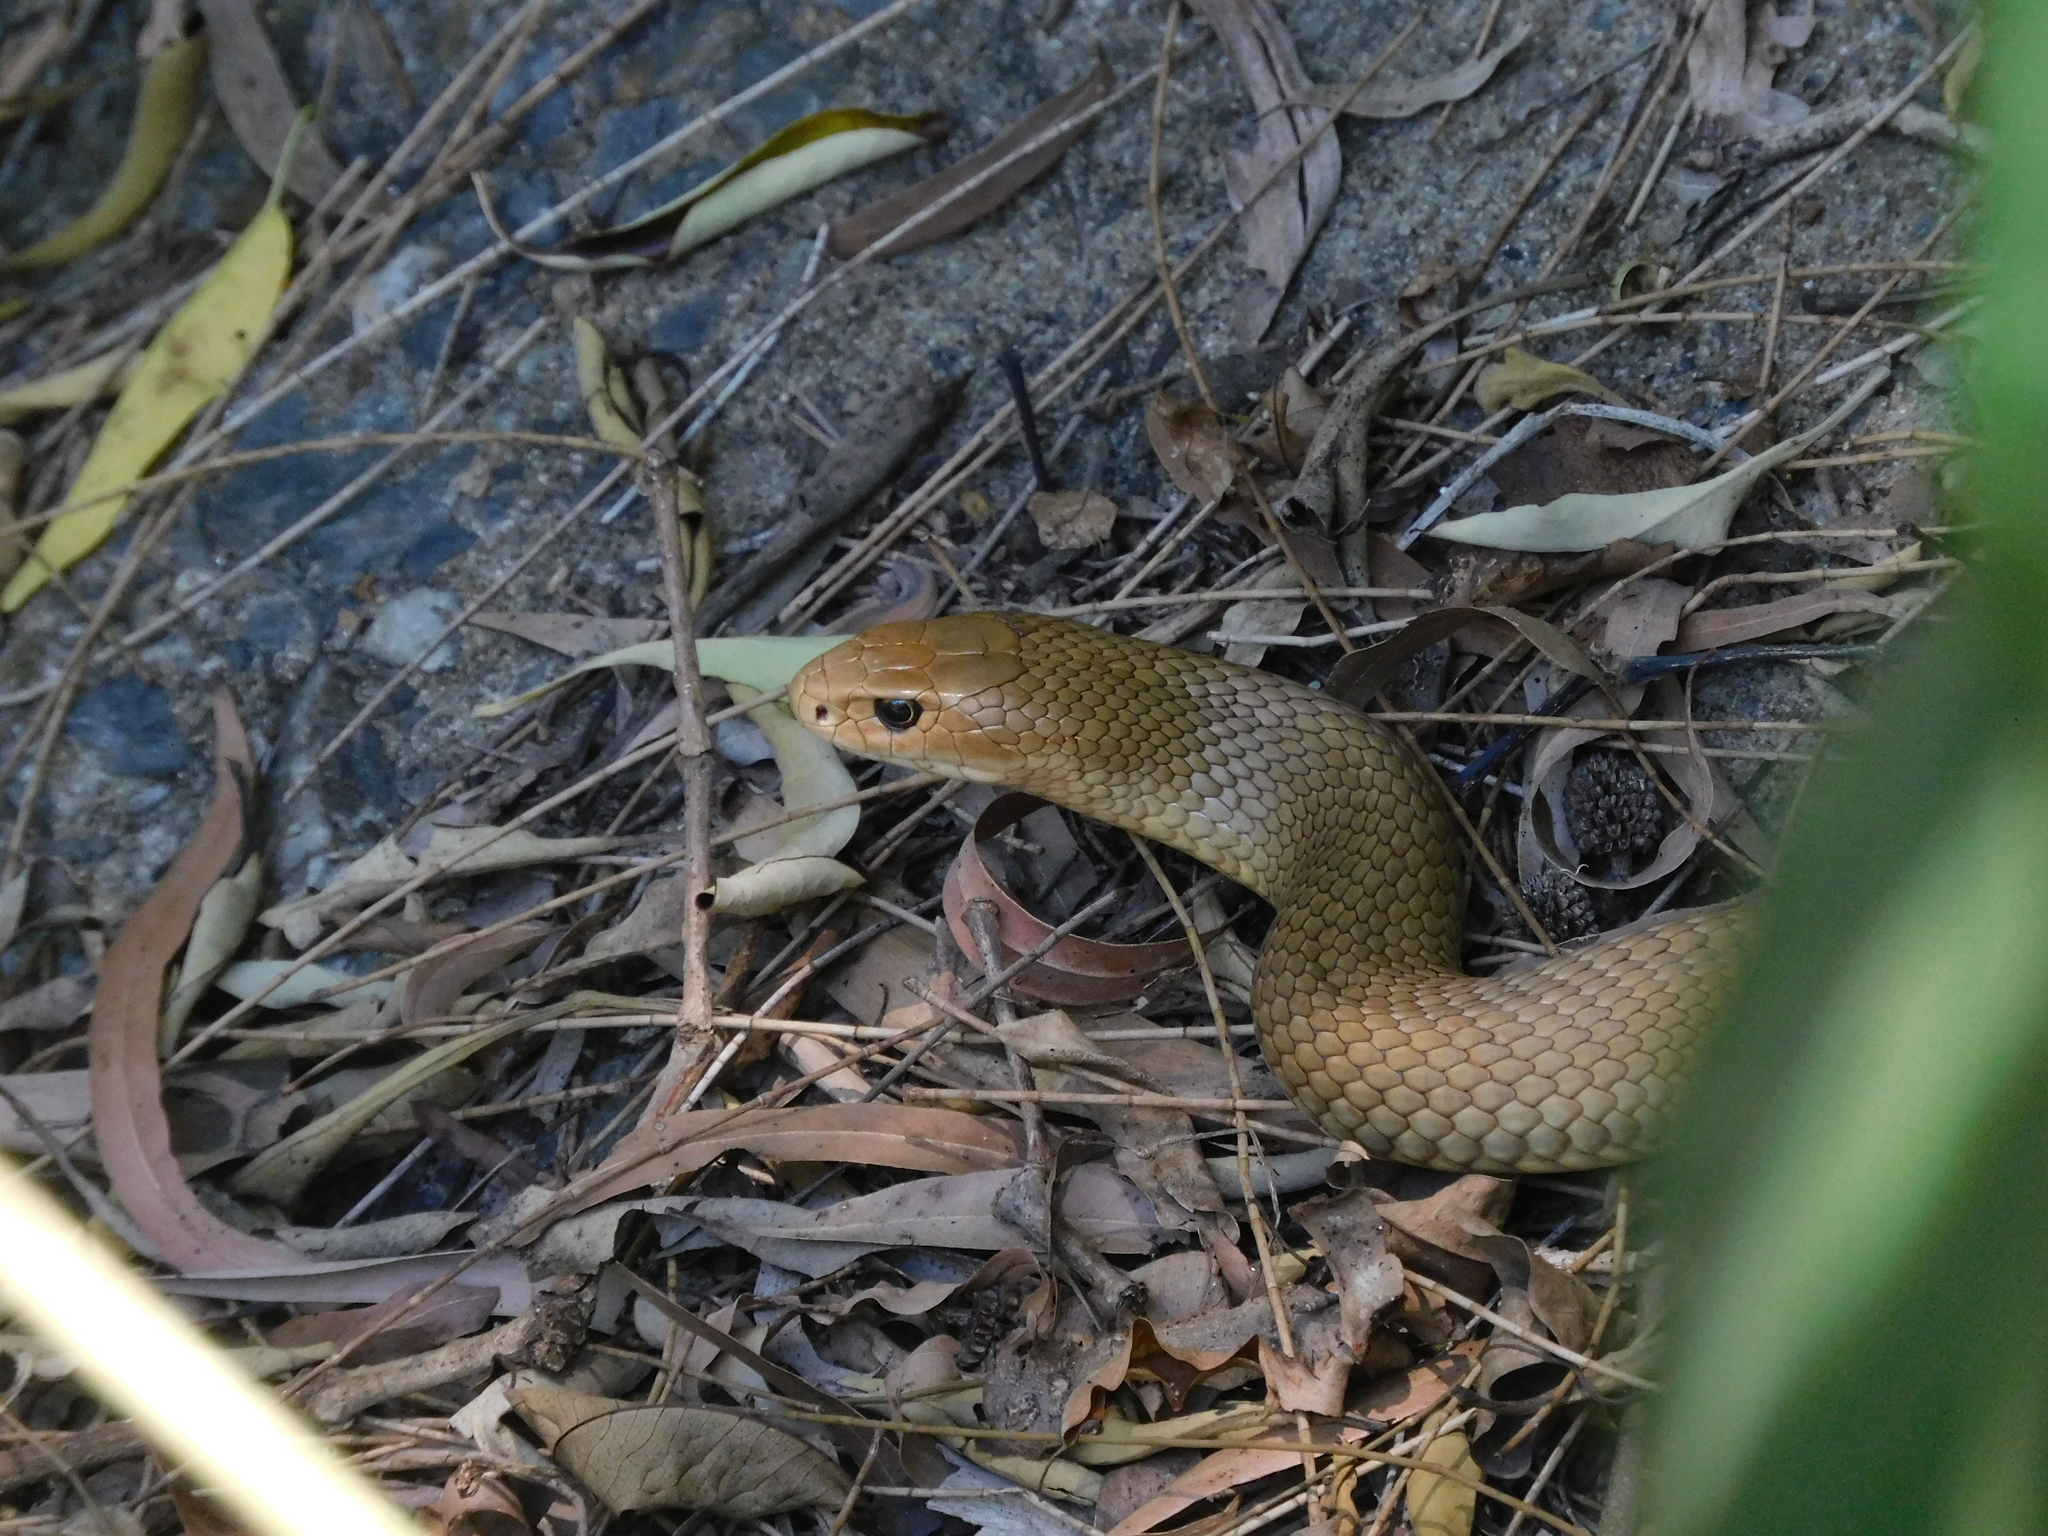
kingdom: Animalia
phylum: Chordata
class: Squamata
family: Elapidae
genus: Pseudonaja
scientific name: Pseudonaja textilis
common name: Eastern brown snake
